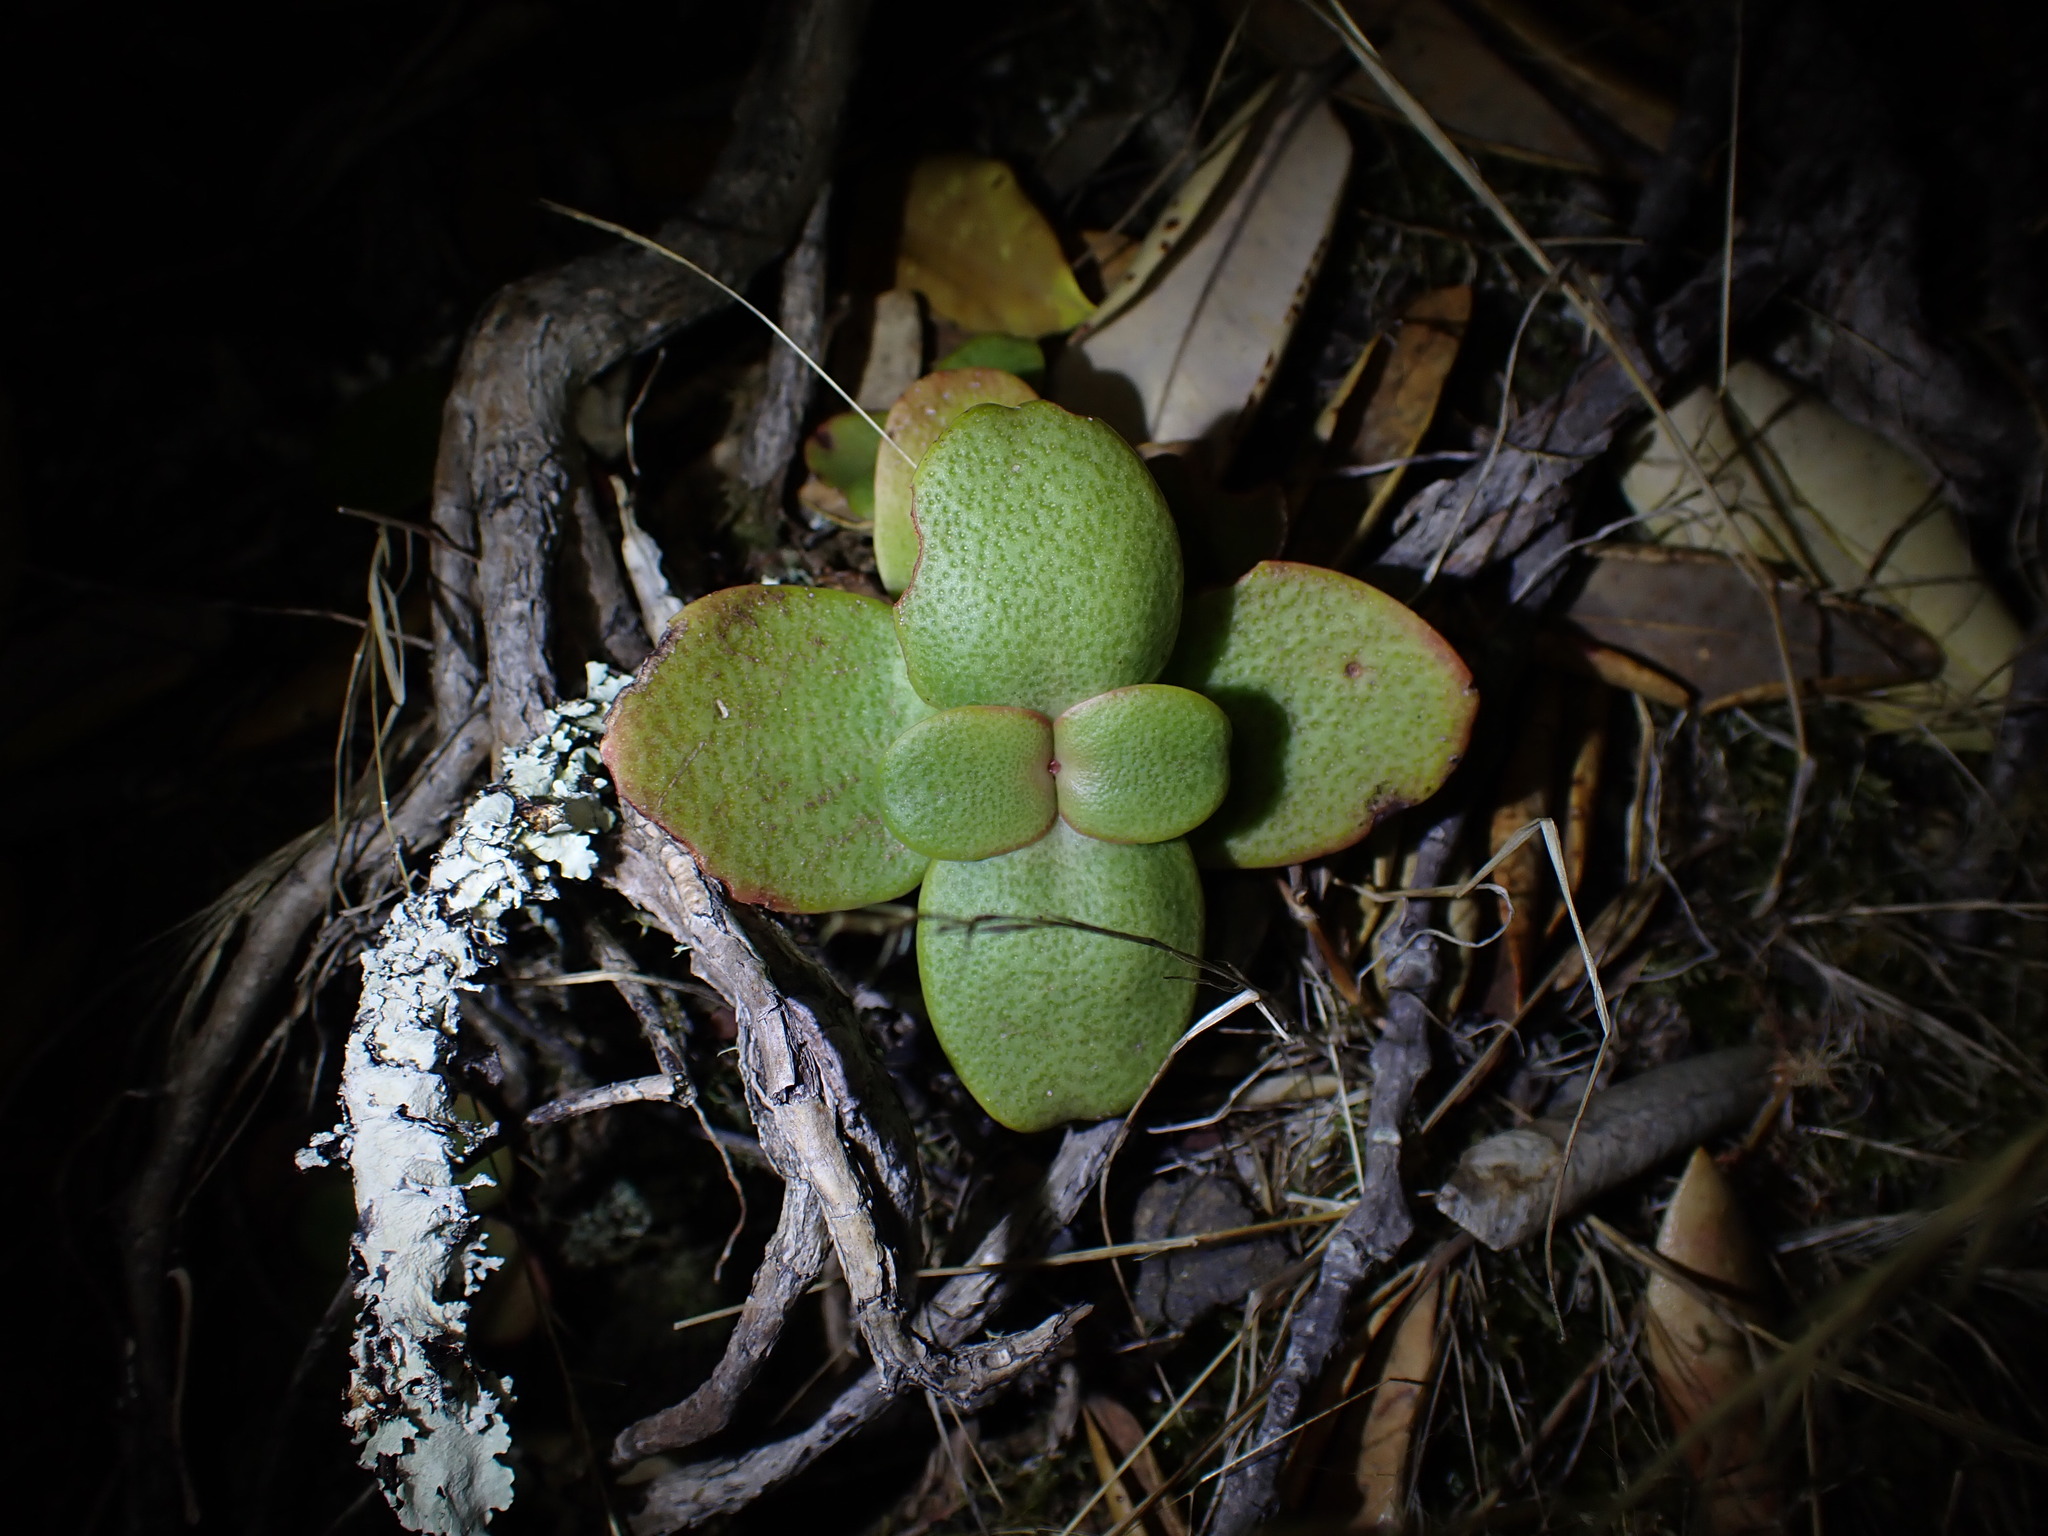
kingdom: Plantae
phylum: Tracheophyta
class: Magnoliopsida
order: Saxifragales
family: Crassulaceae
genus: Crassula
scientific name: Crassula multicava
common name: Cape province pygmyweed
